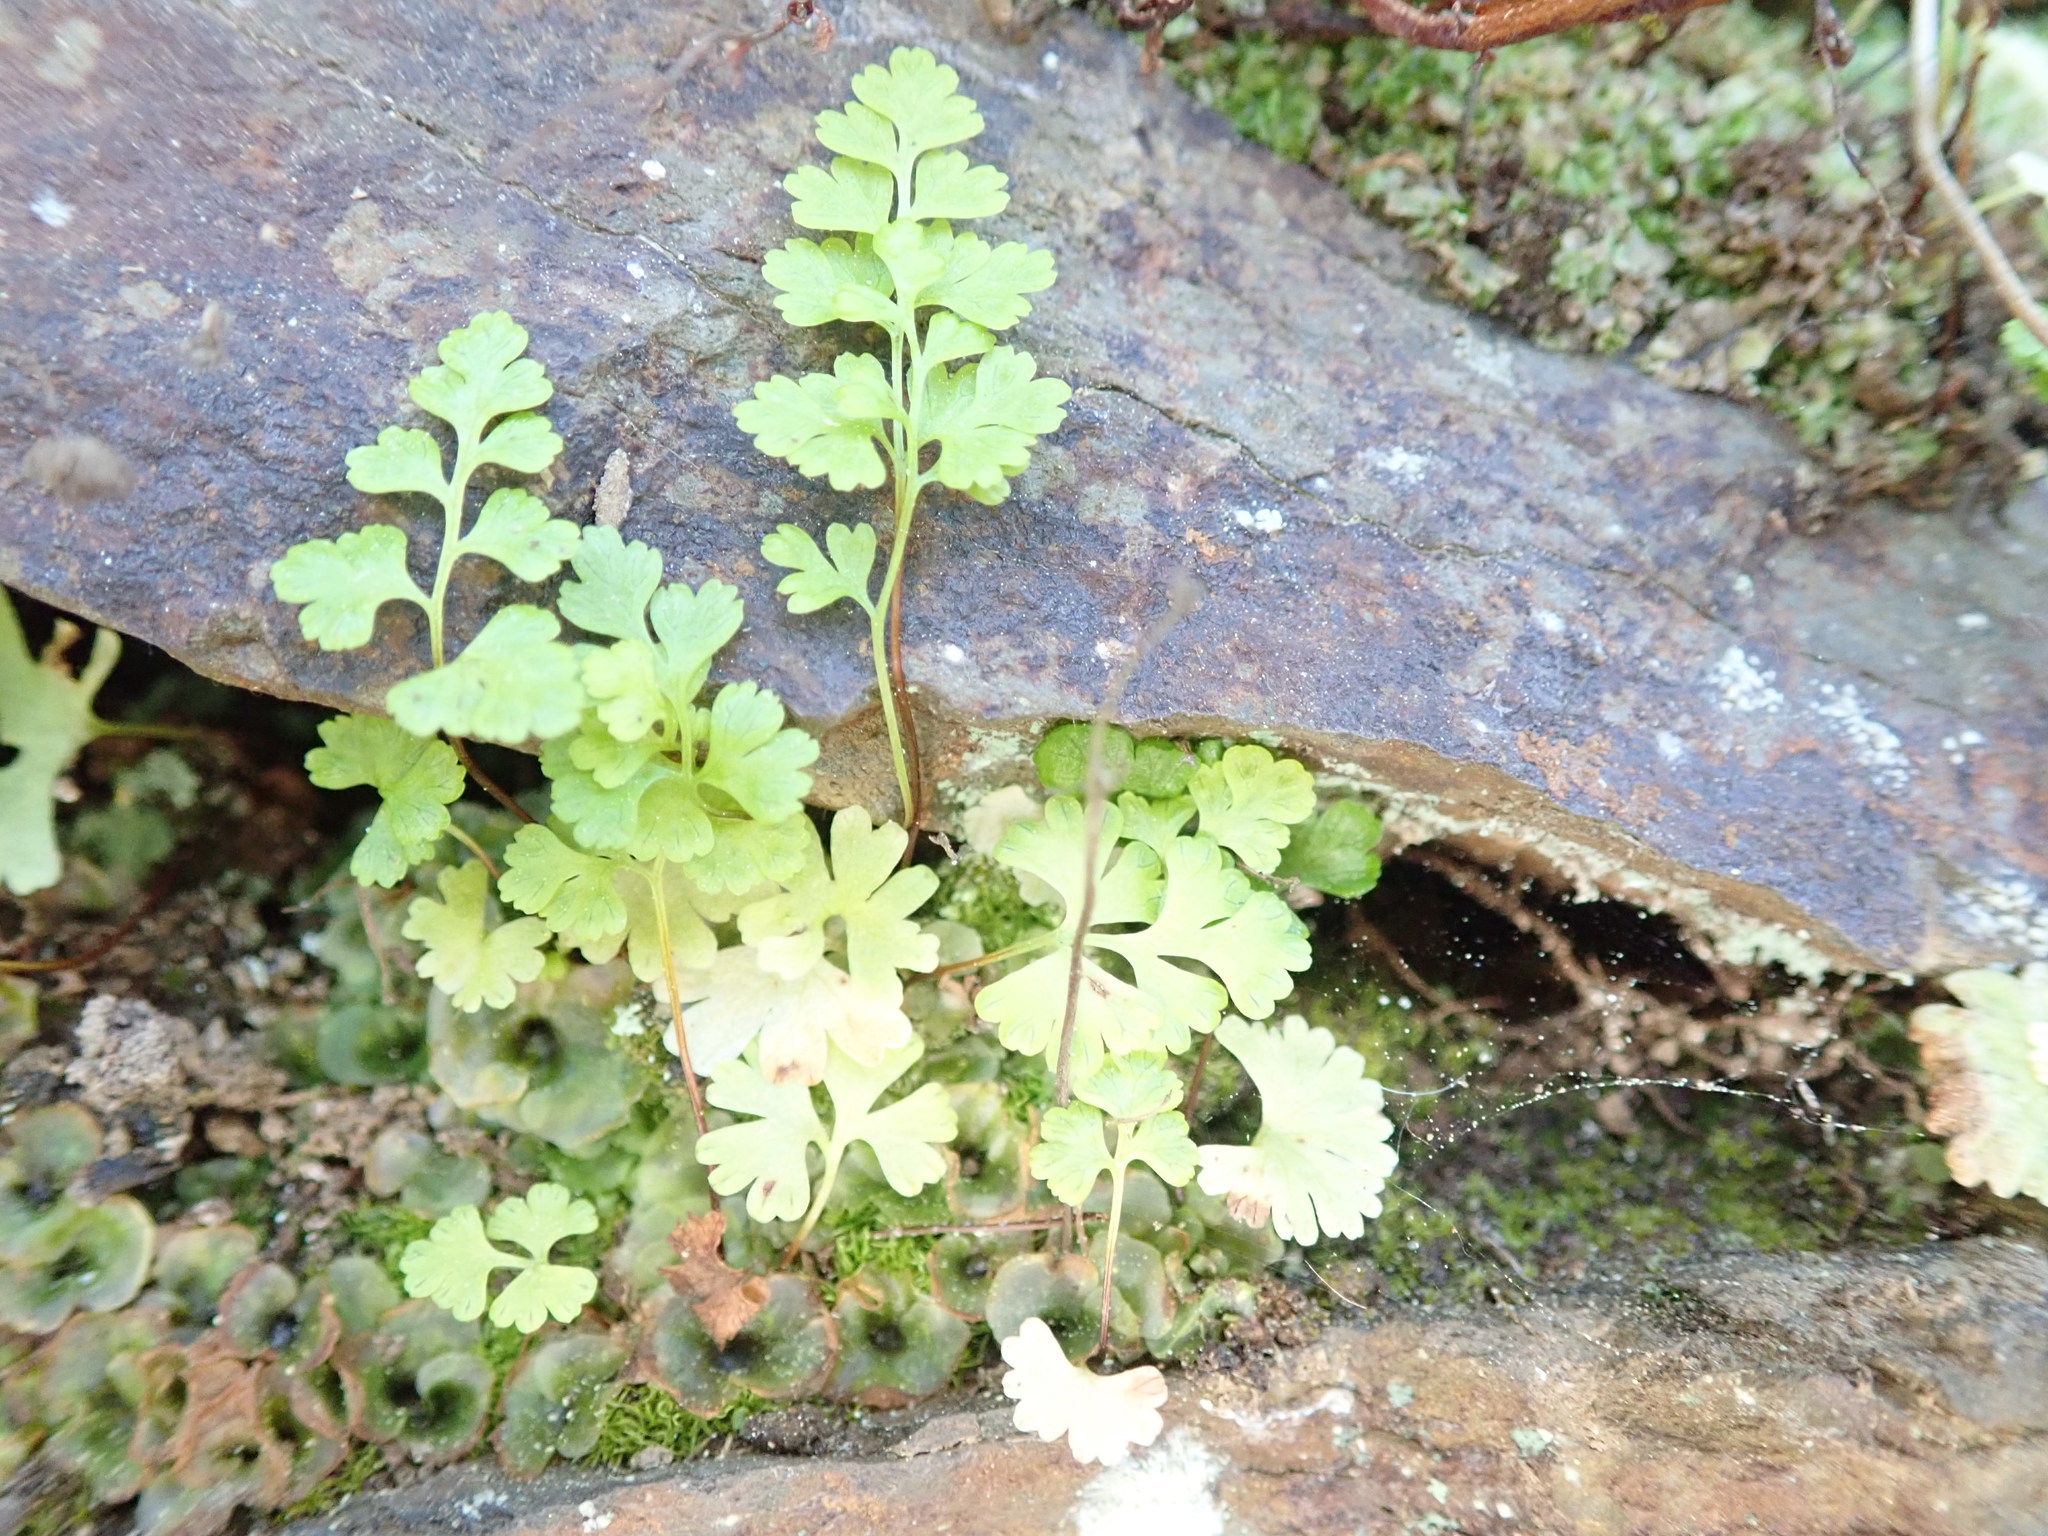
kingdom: Plantae
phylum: Tracheophyta
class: Polypodiopsida
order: Polypodiales
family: Pteridaceae
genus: Anogramma
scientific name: Anogramma leptophylla
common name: Jersey fern
